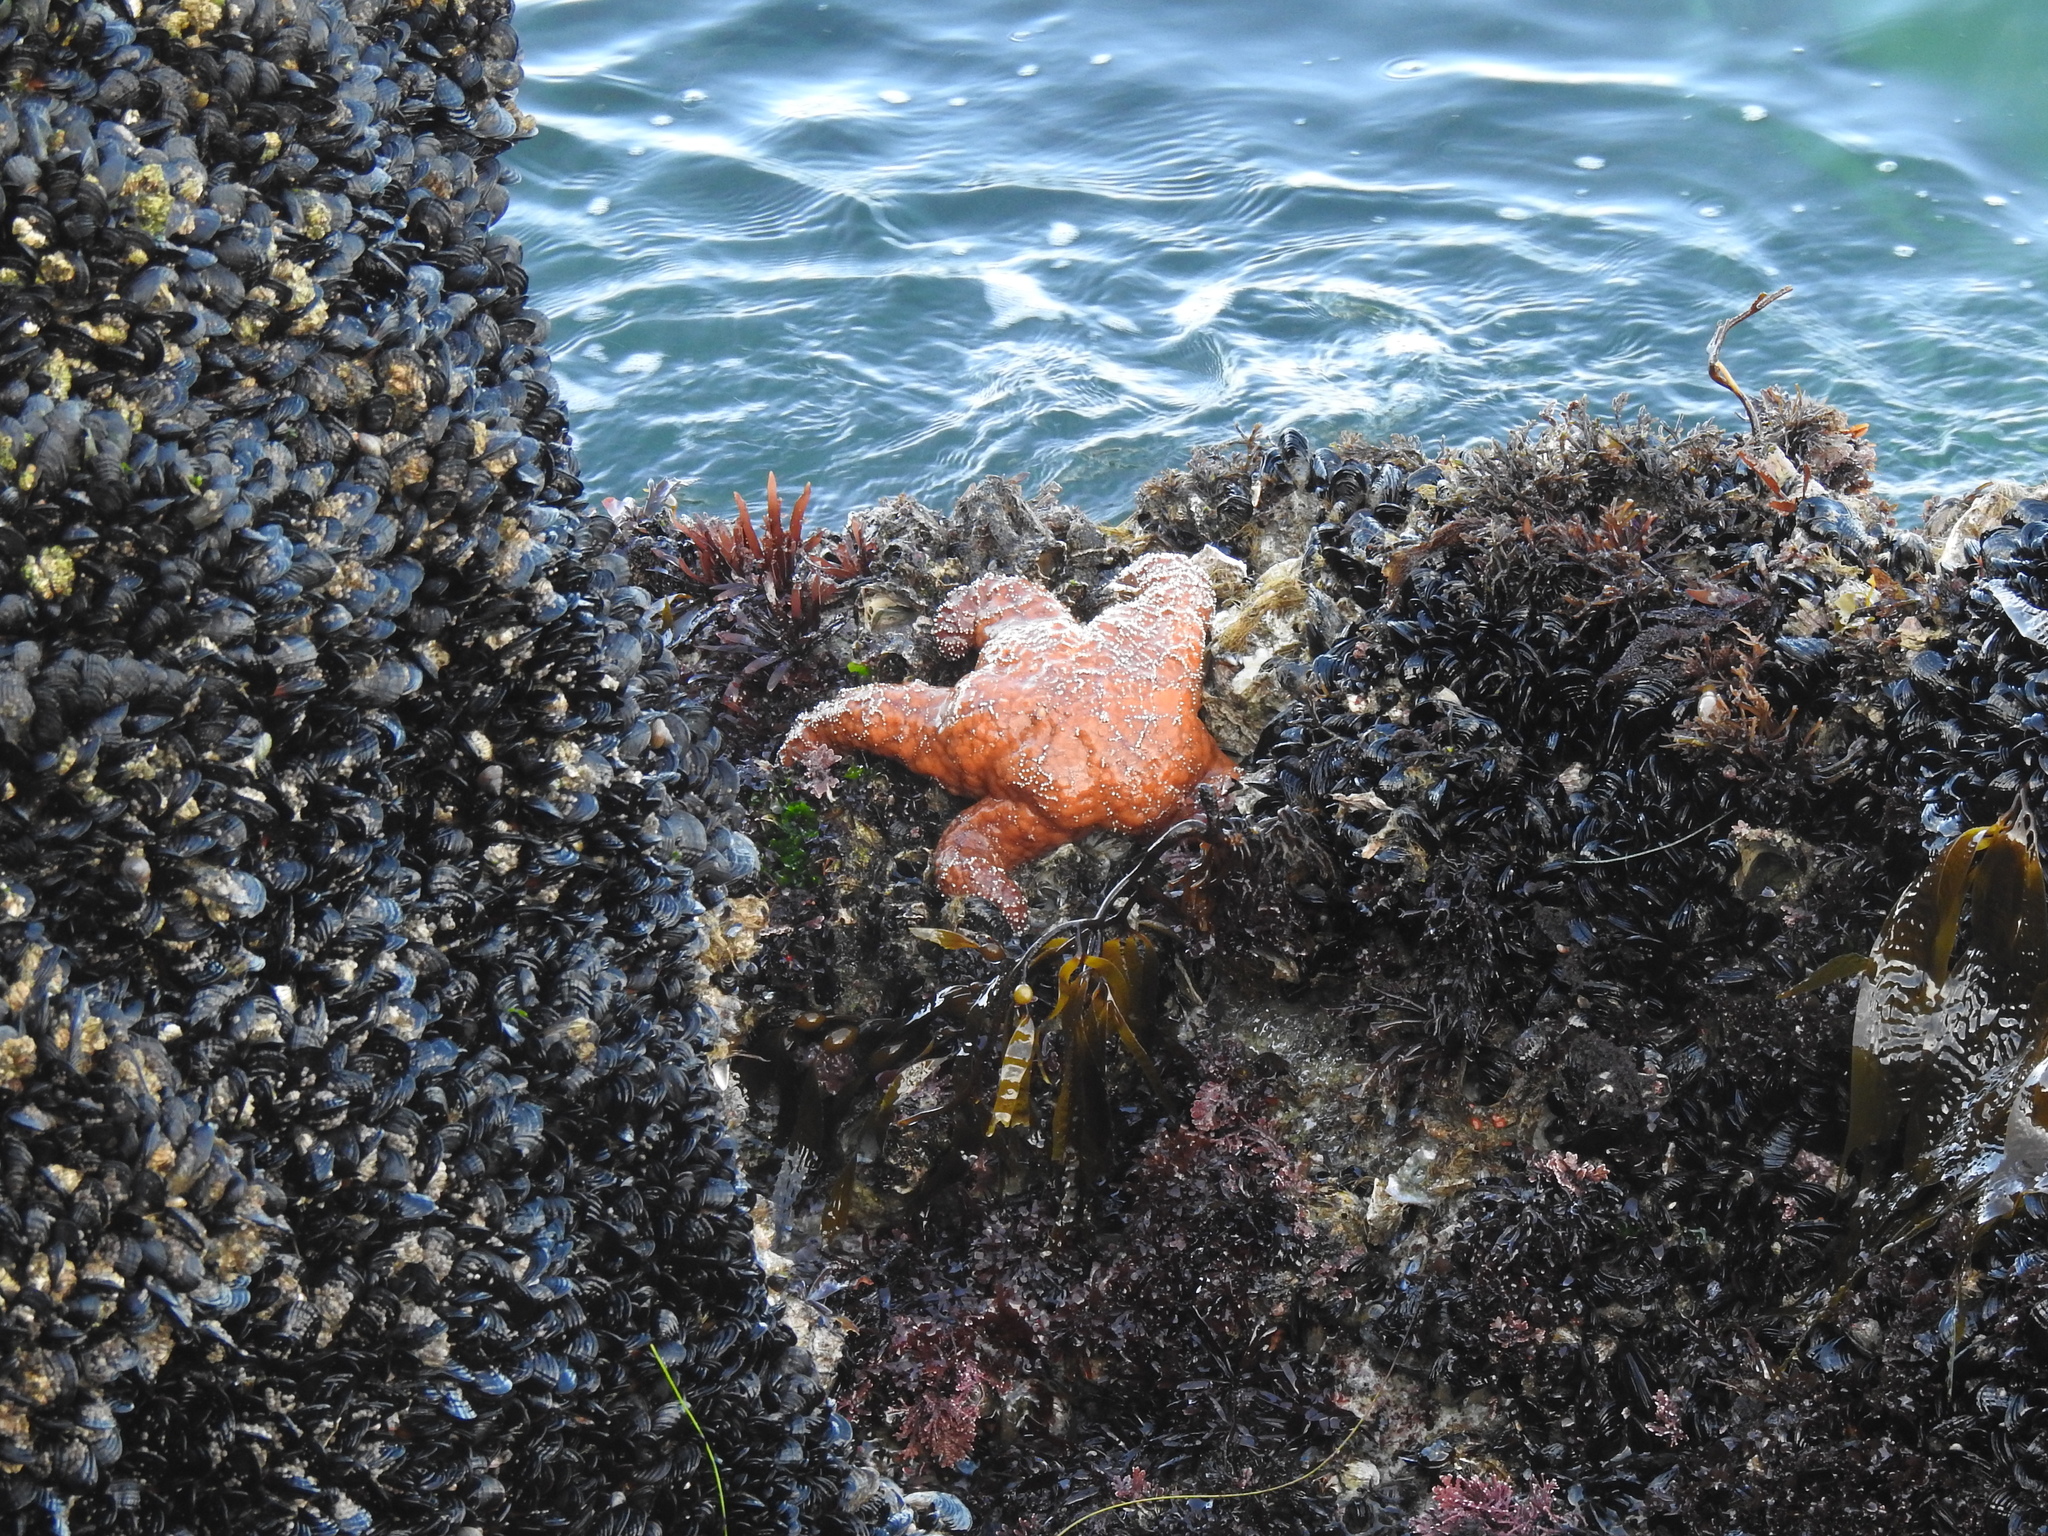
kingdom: Animalia
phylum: Echinodermata
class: Asteroidea
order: Forcipulatida
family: Asteriidae
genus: Pisaster
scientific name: Pisaster ochraceus
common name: Ochre stars
